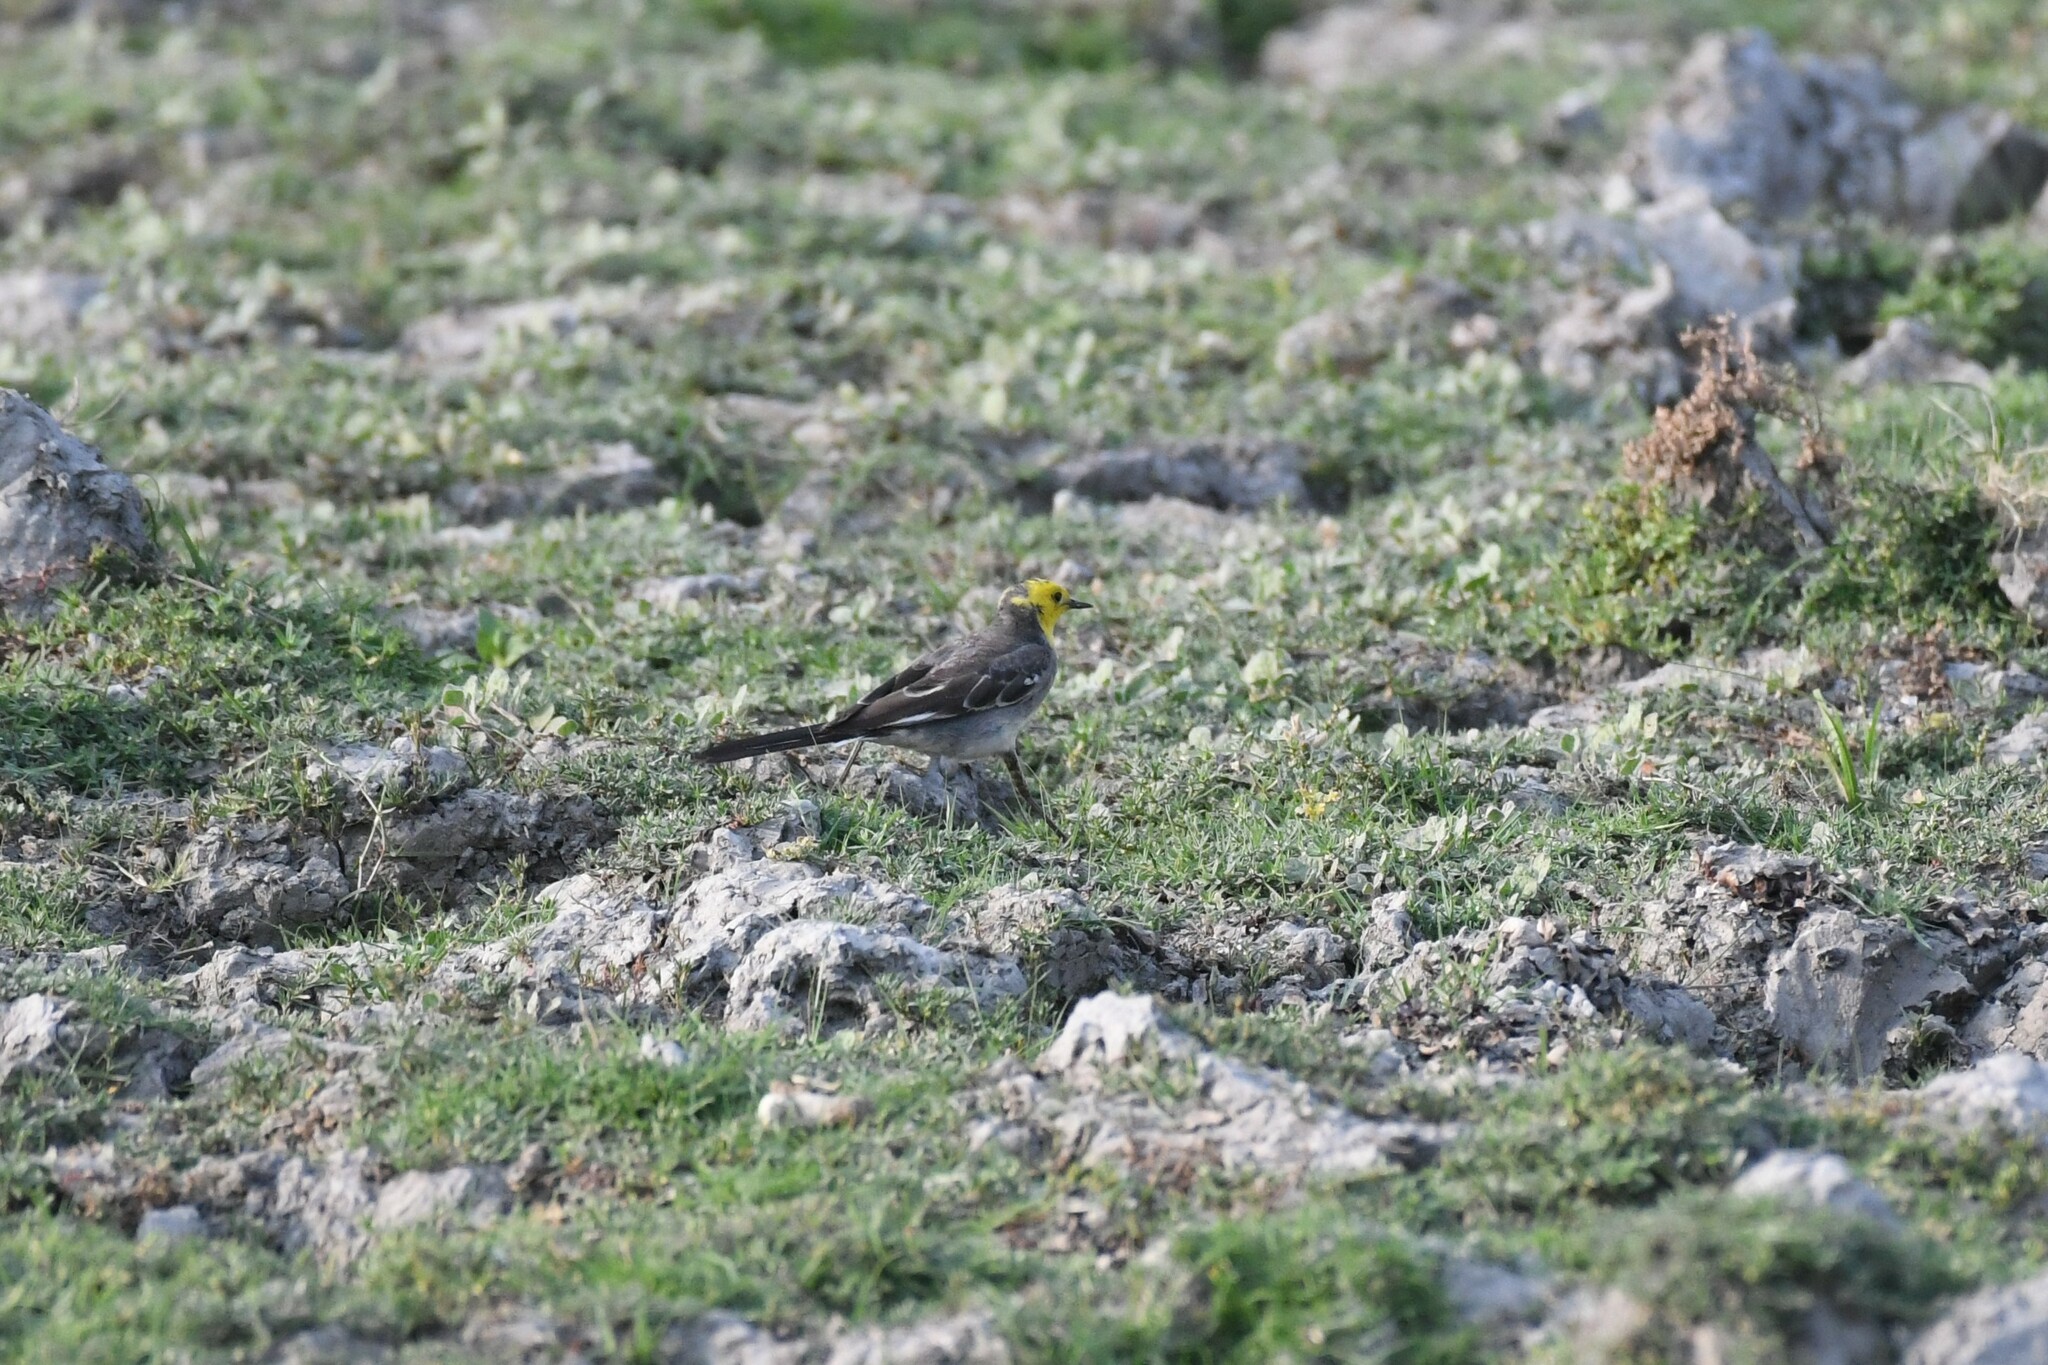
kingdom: Animalia
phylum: Chordata
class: Aves
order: Passeriformes
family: Motacillidae
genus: Motacilla
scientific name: Motacilla citreola
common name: Citrine wagtail
